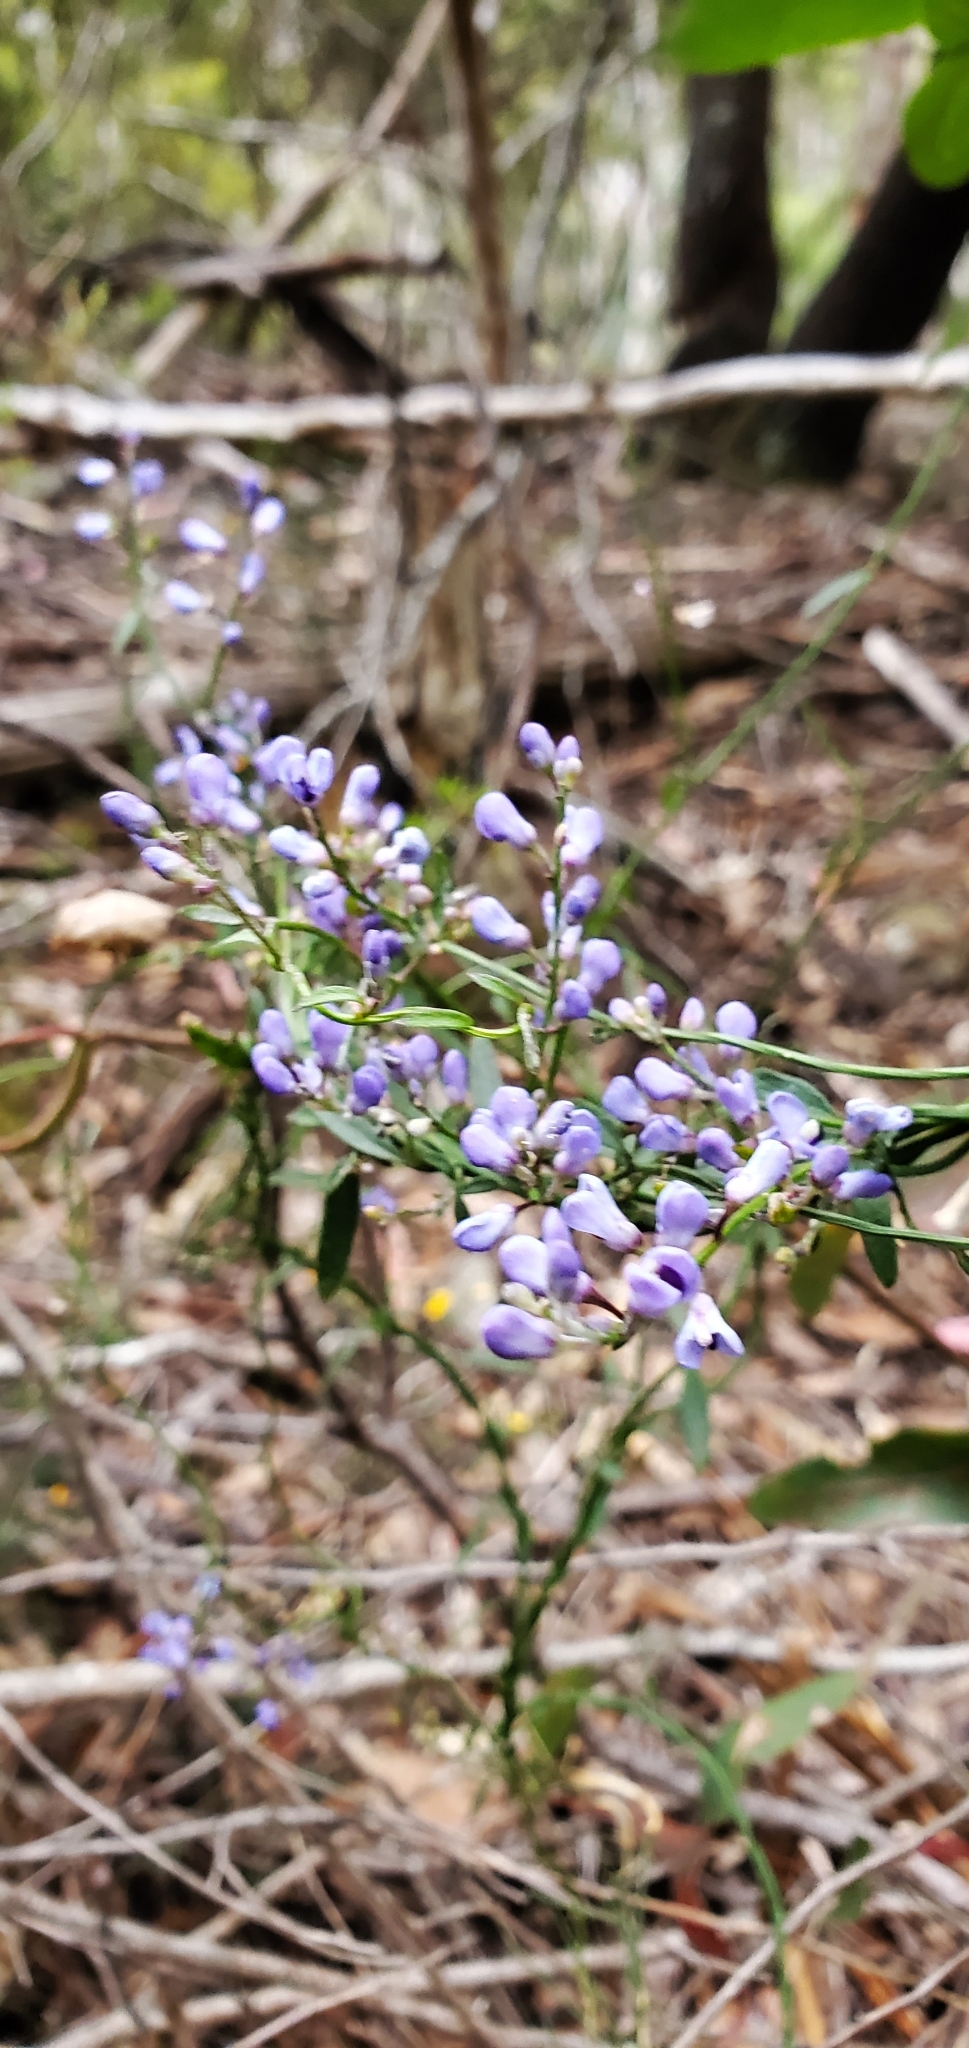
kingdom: Plantae
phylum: Tracheophyta
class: Magnoliopsida
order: Fabales
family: Polygalaceae
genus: Comesperma
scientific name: Comesperma volubile
